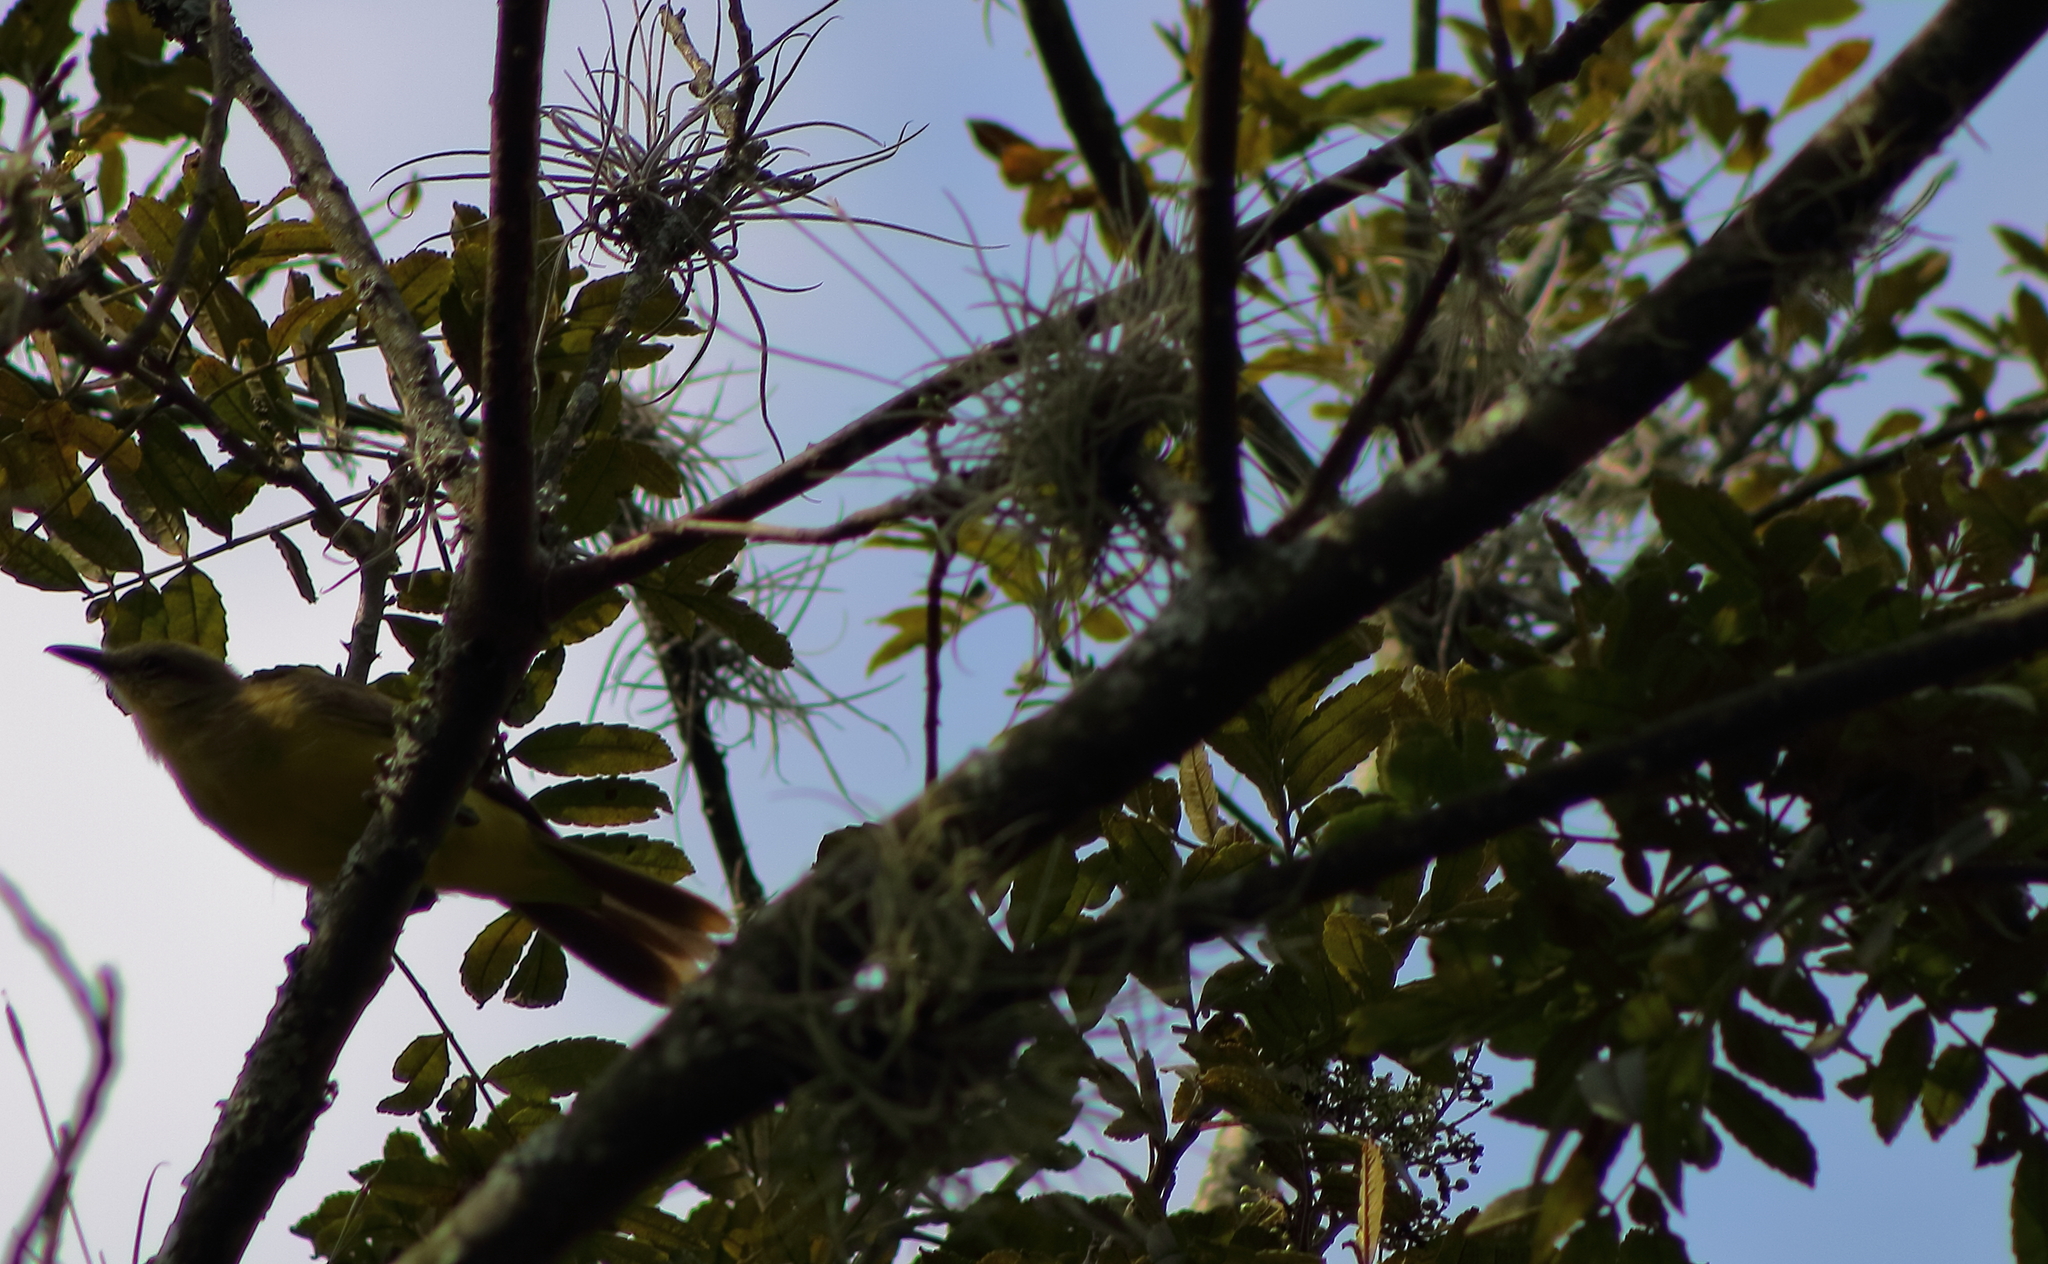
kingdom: Animalia
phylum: Chordata
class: Aves
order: Passeriformes
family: Tyrannidae
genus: Machetornis
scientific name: Machetornis rixosa
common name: Cattle tyrant
